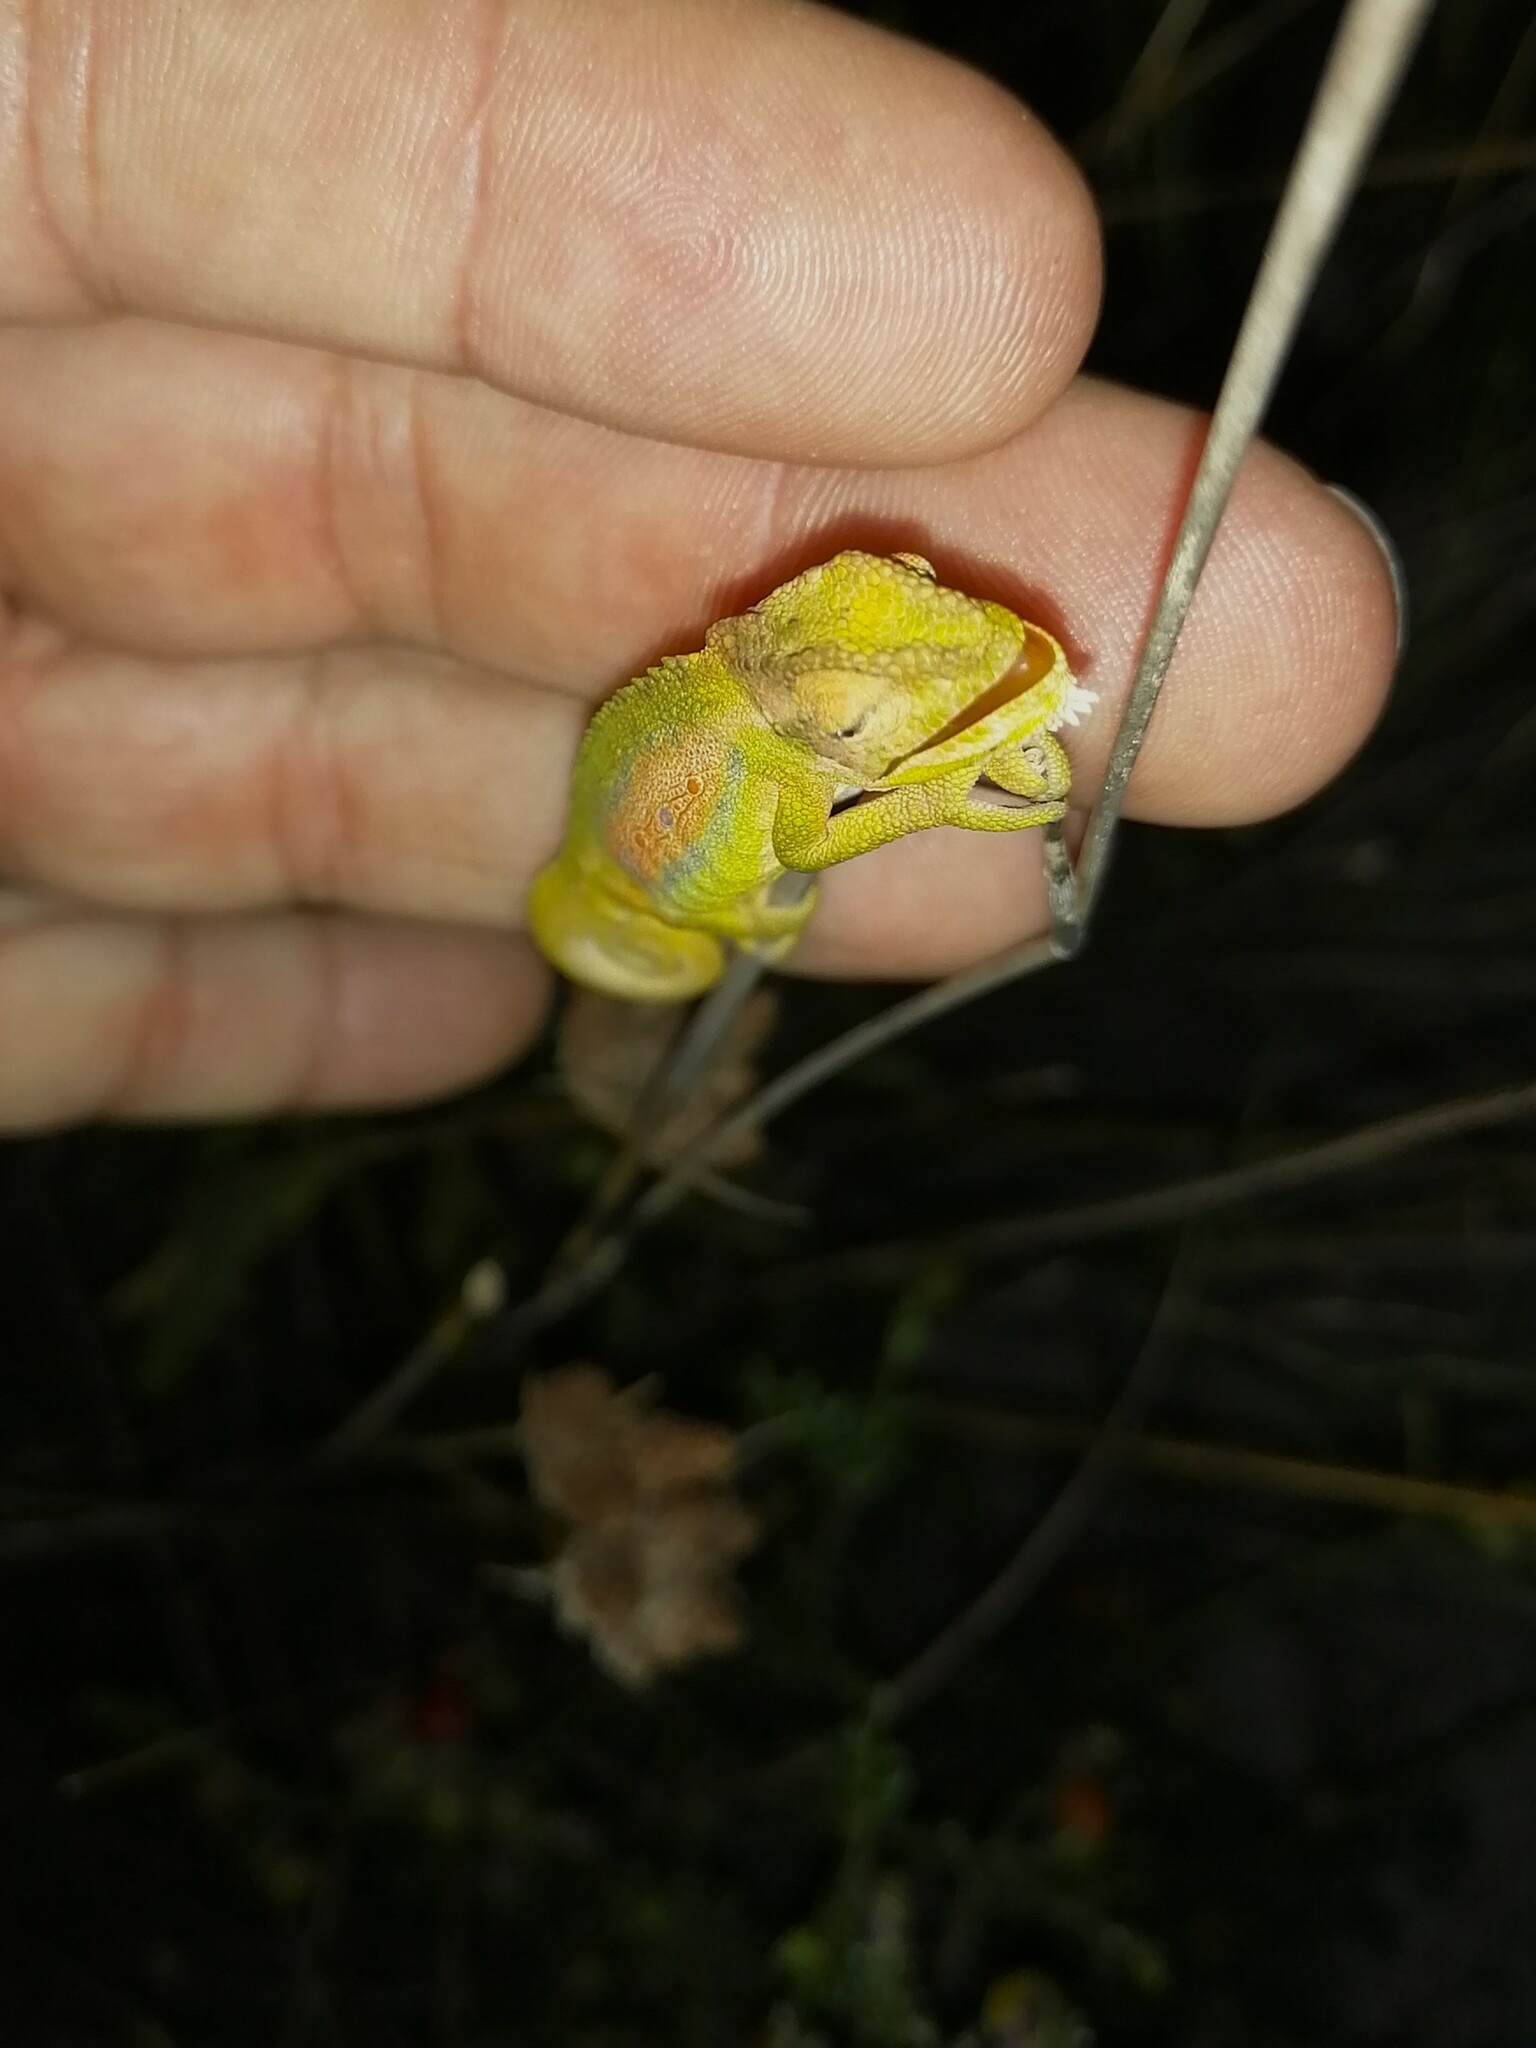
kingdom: Animalia
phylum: Chordata
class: Squamata
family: Chamaeleonidae
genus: Bradypodion
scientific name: Bradypodion pumilum
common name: Cape dwarf chameleon
